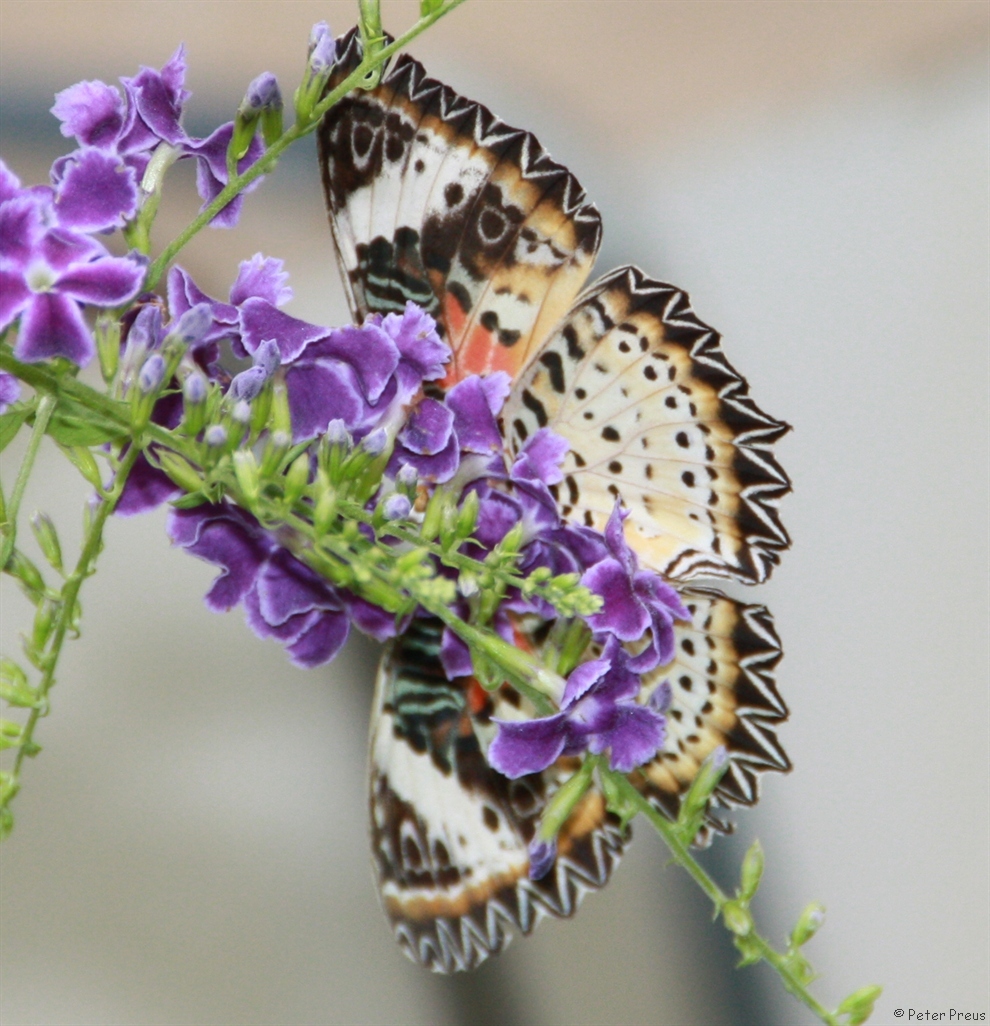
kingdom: Animalia
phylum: Arthropoda
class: Insecta
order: Lepidoptera
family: Nymphalidae
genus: Cethosia
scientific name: Cethosia cyane
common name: Leopard lacewing butterfly
